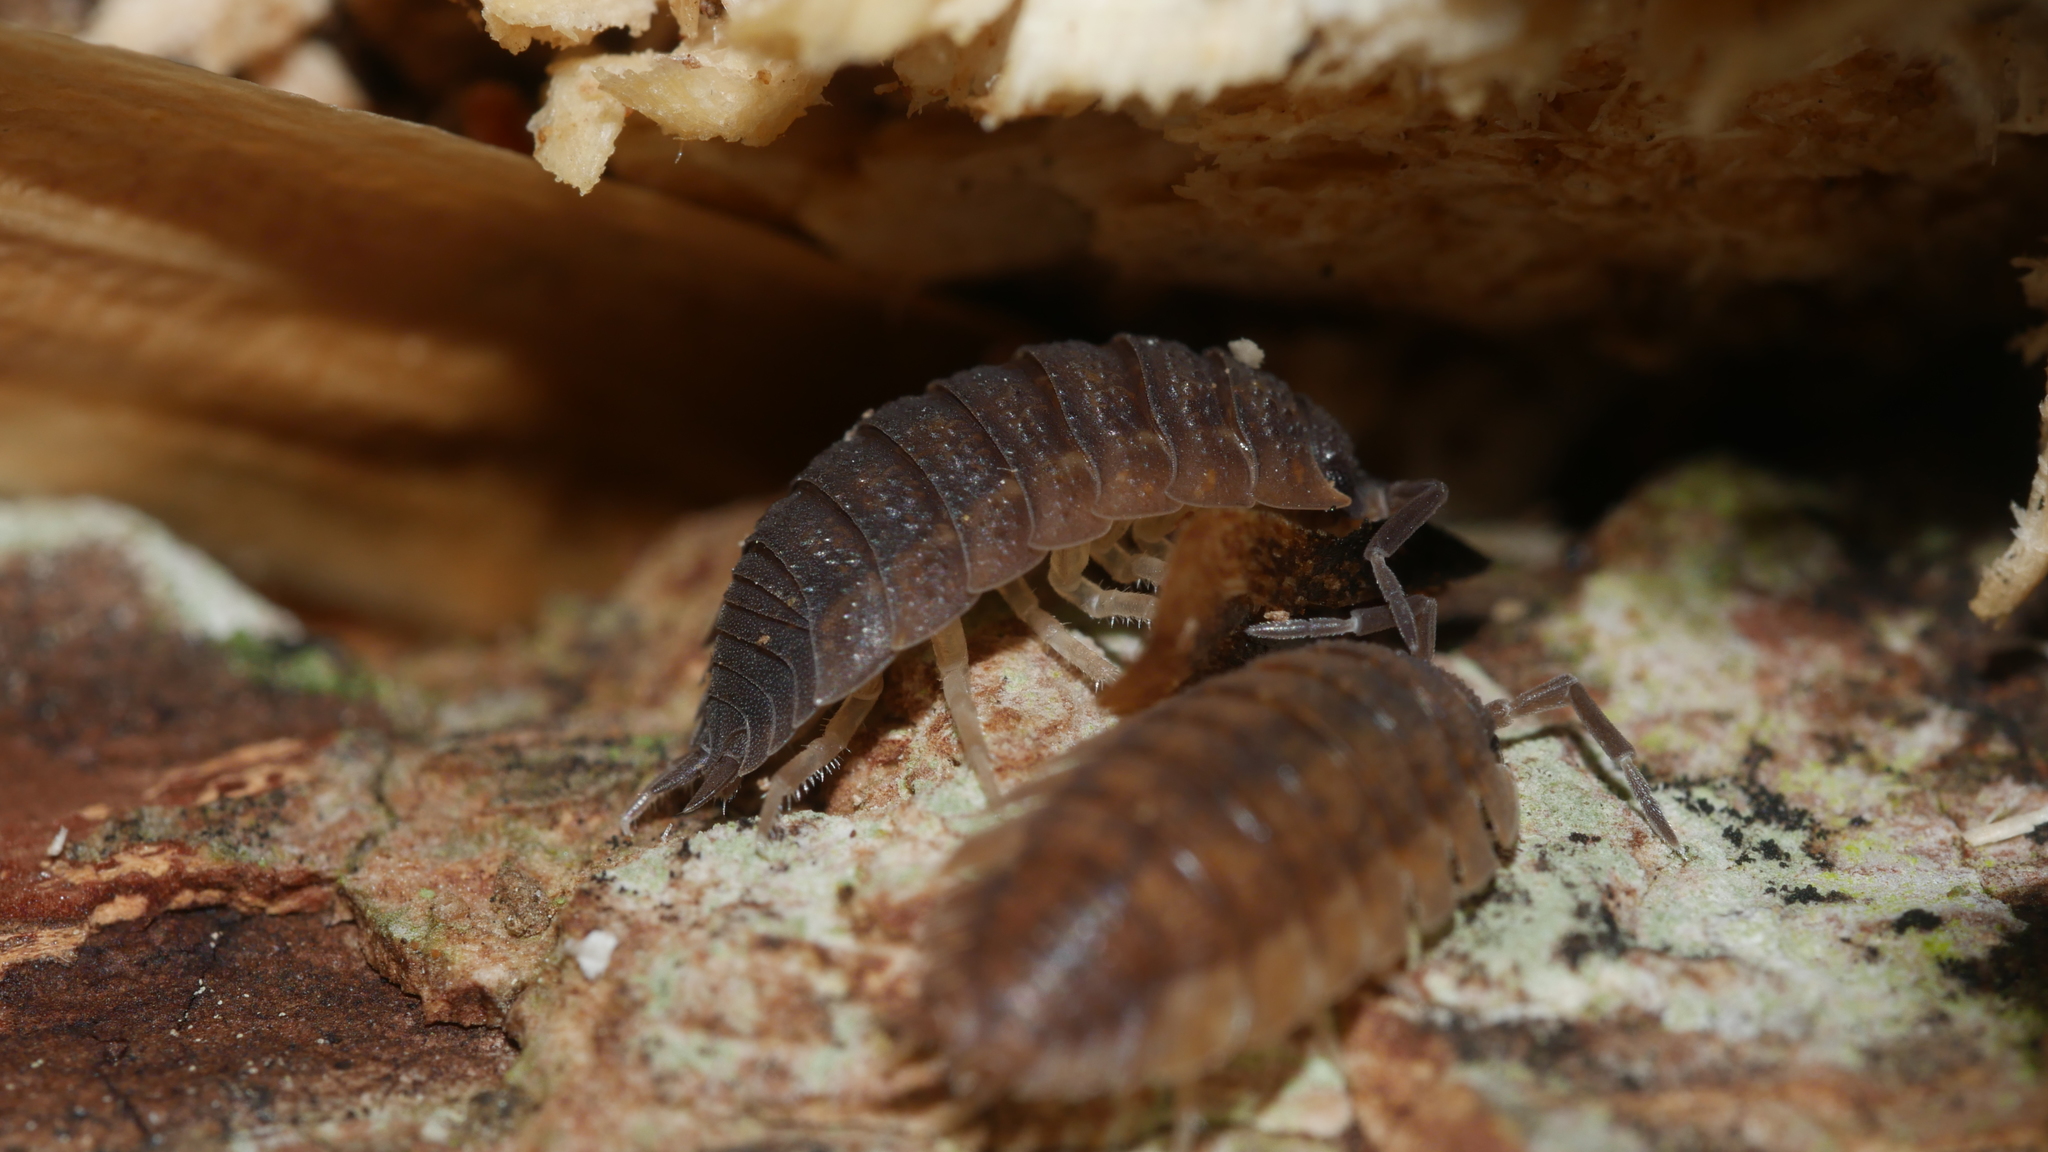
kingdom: Animalia
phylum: Arthropoda
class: Malacostraca
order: Isopoda
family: Porcellionidae
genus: Porcellio
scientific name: Porcellio scaber
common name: Common rough woodlouse
